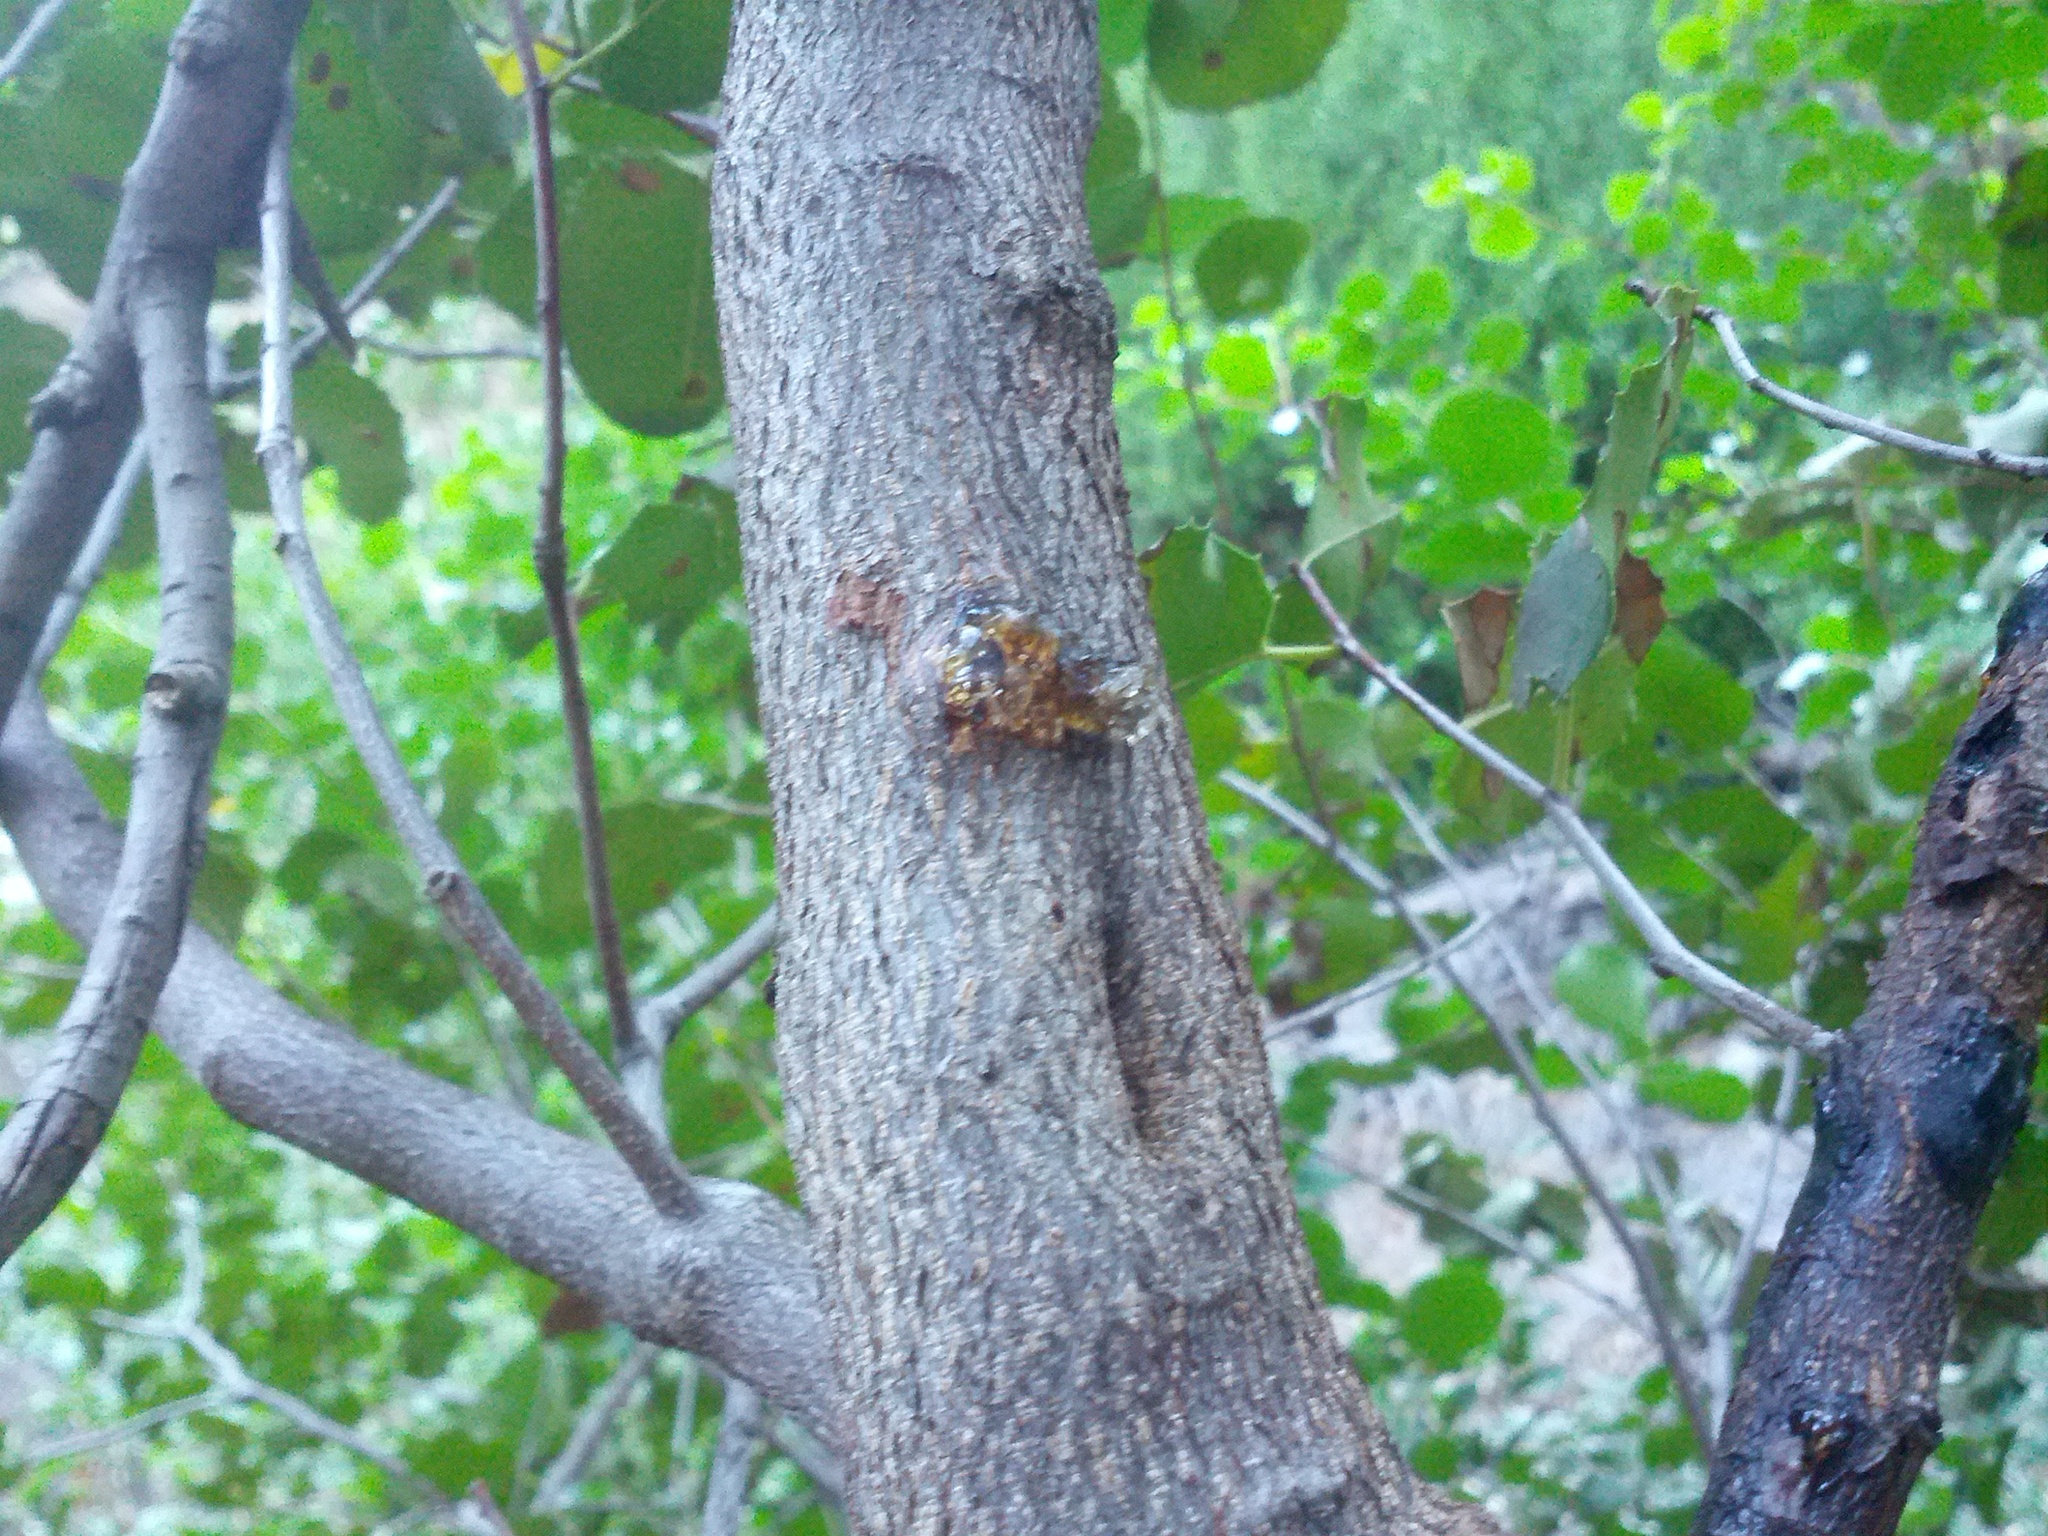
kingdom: Plantae
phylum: Tracheophyta
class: Magnoliopsida
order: Rosales
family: Rosaceae
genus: Prunus
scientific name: Prunus ilicifolia
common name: Hollyleaf cherry
